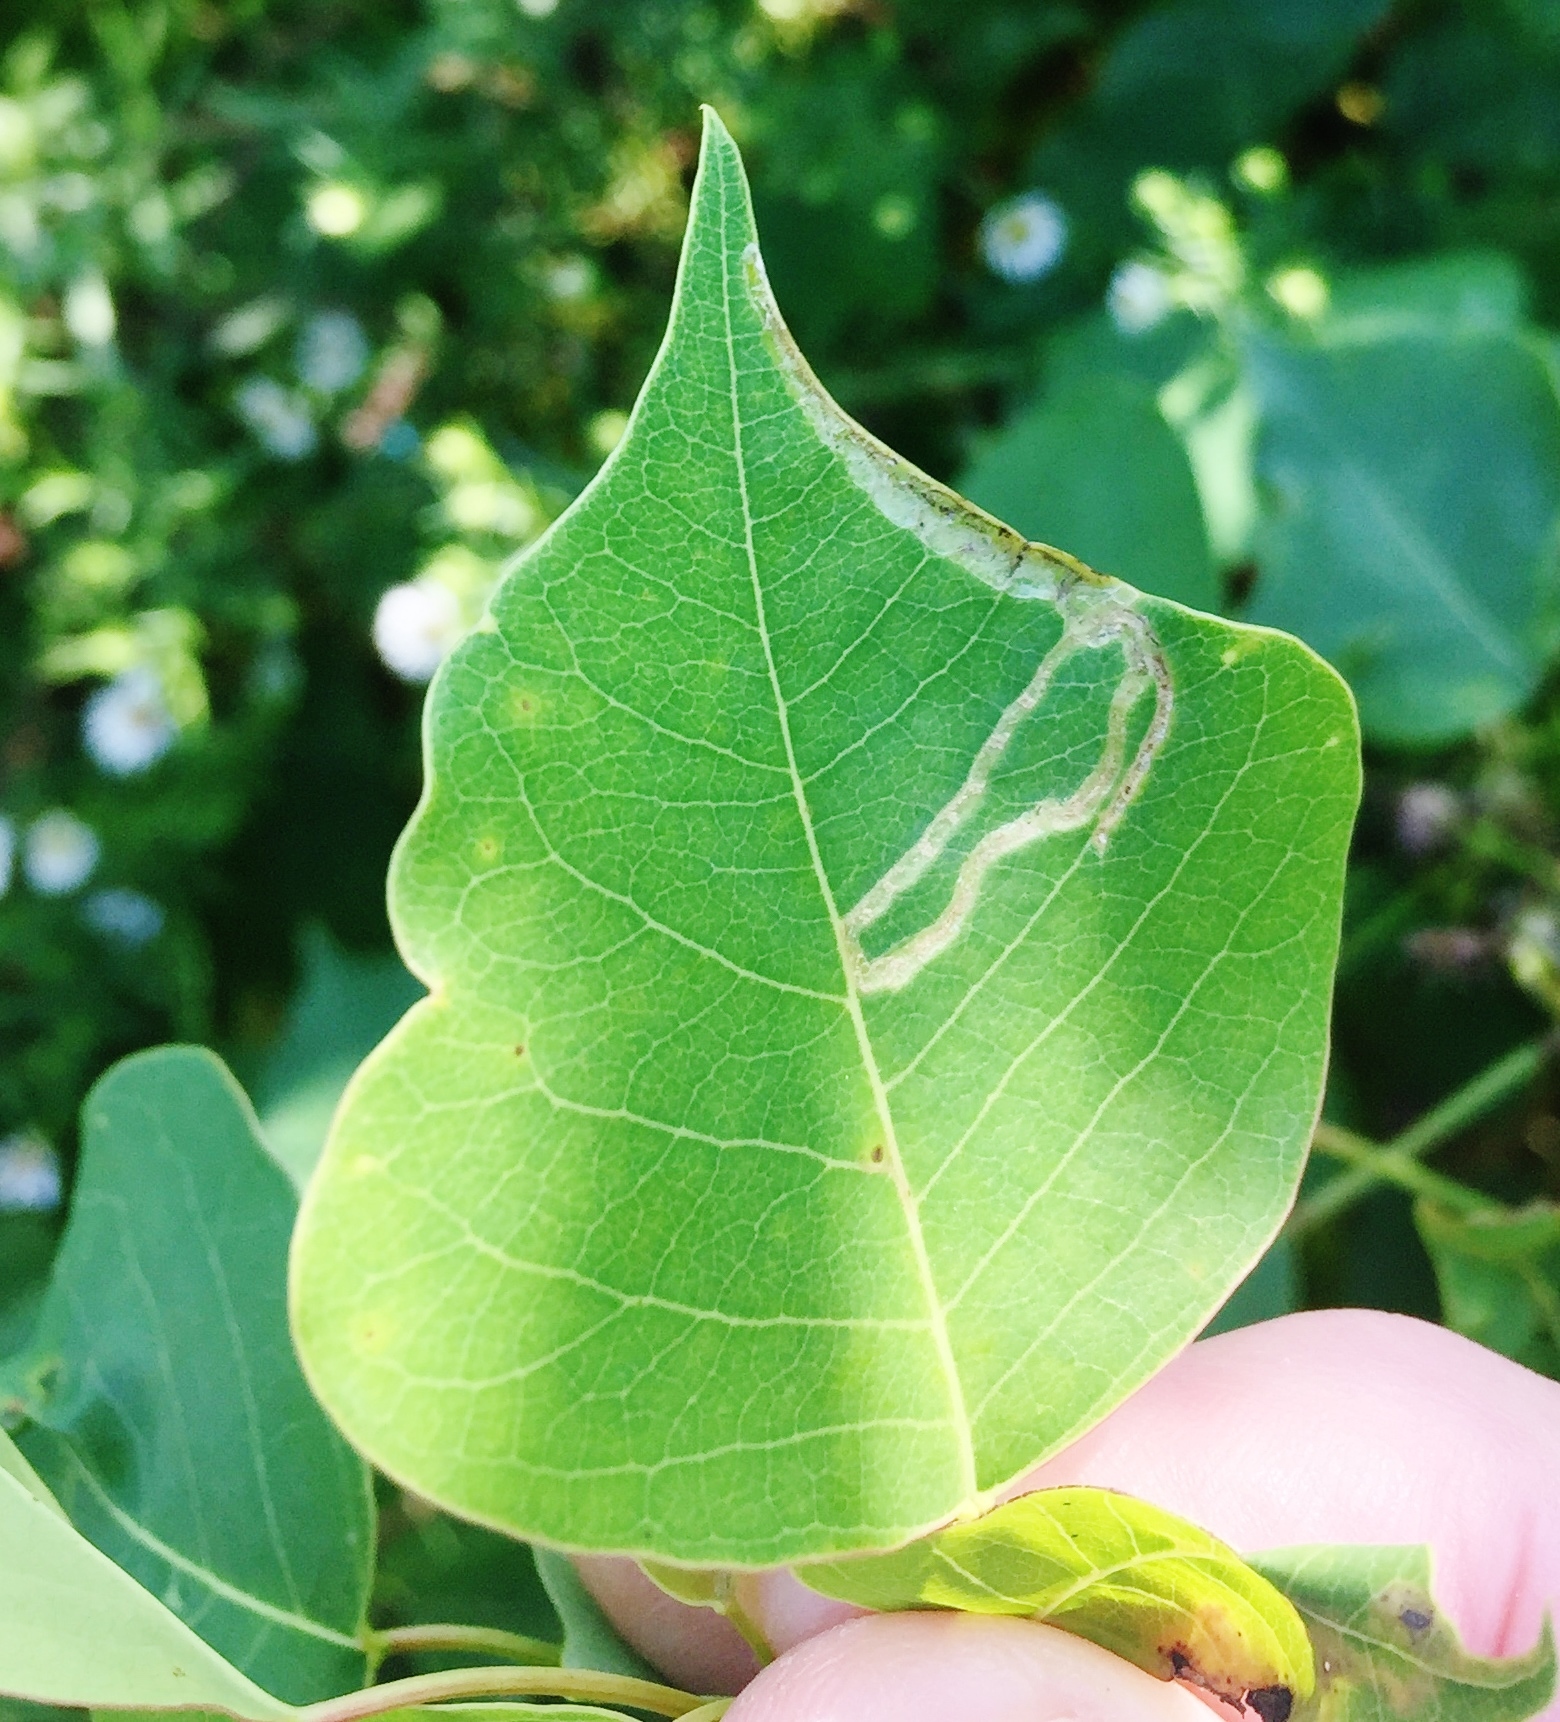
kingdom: Animalia
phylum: Arthropoda
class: Insecta
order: Lepidoptera
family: Gracillariidae
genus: Caloptilia
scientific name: Caloptilia triadicae
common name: Tallow leaf roller
